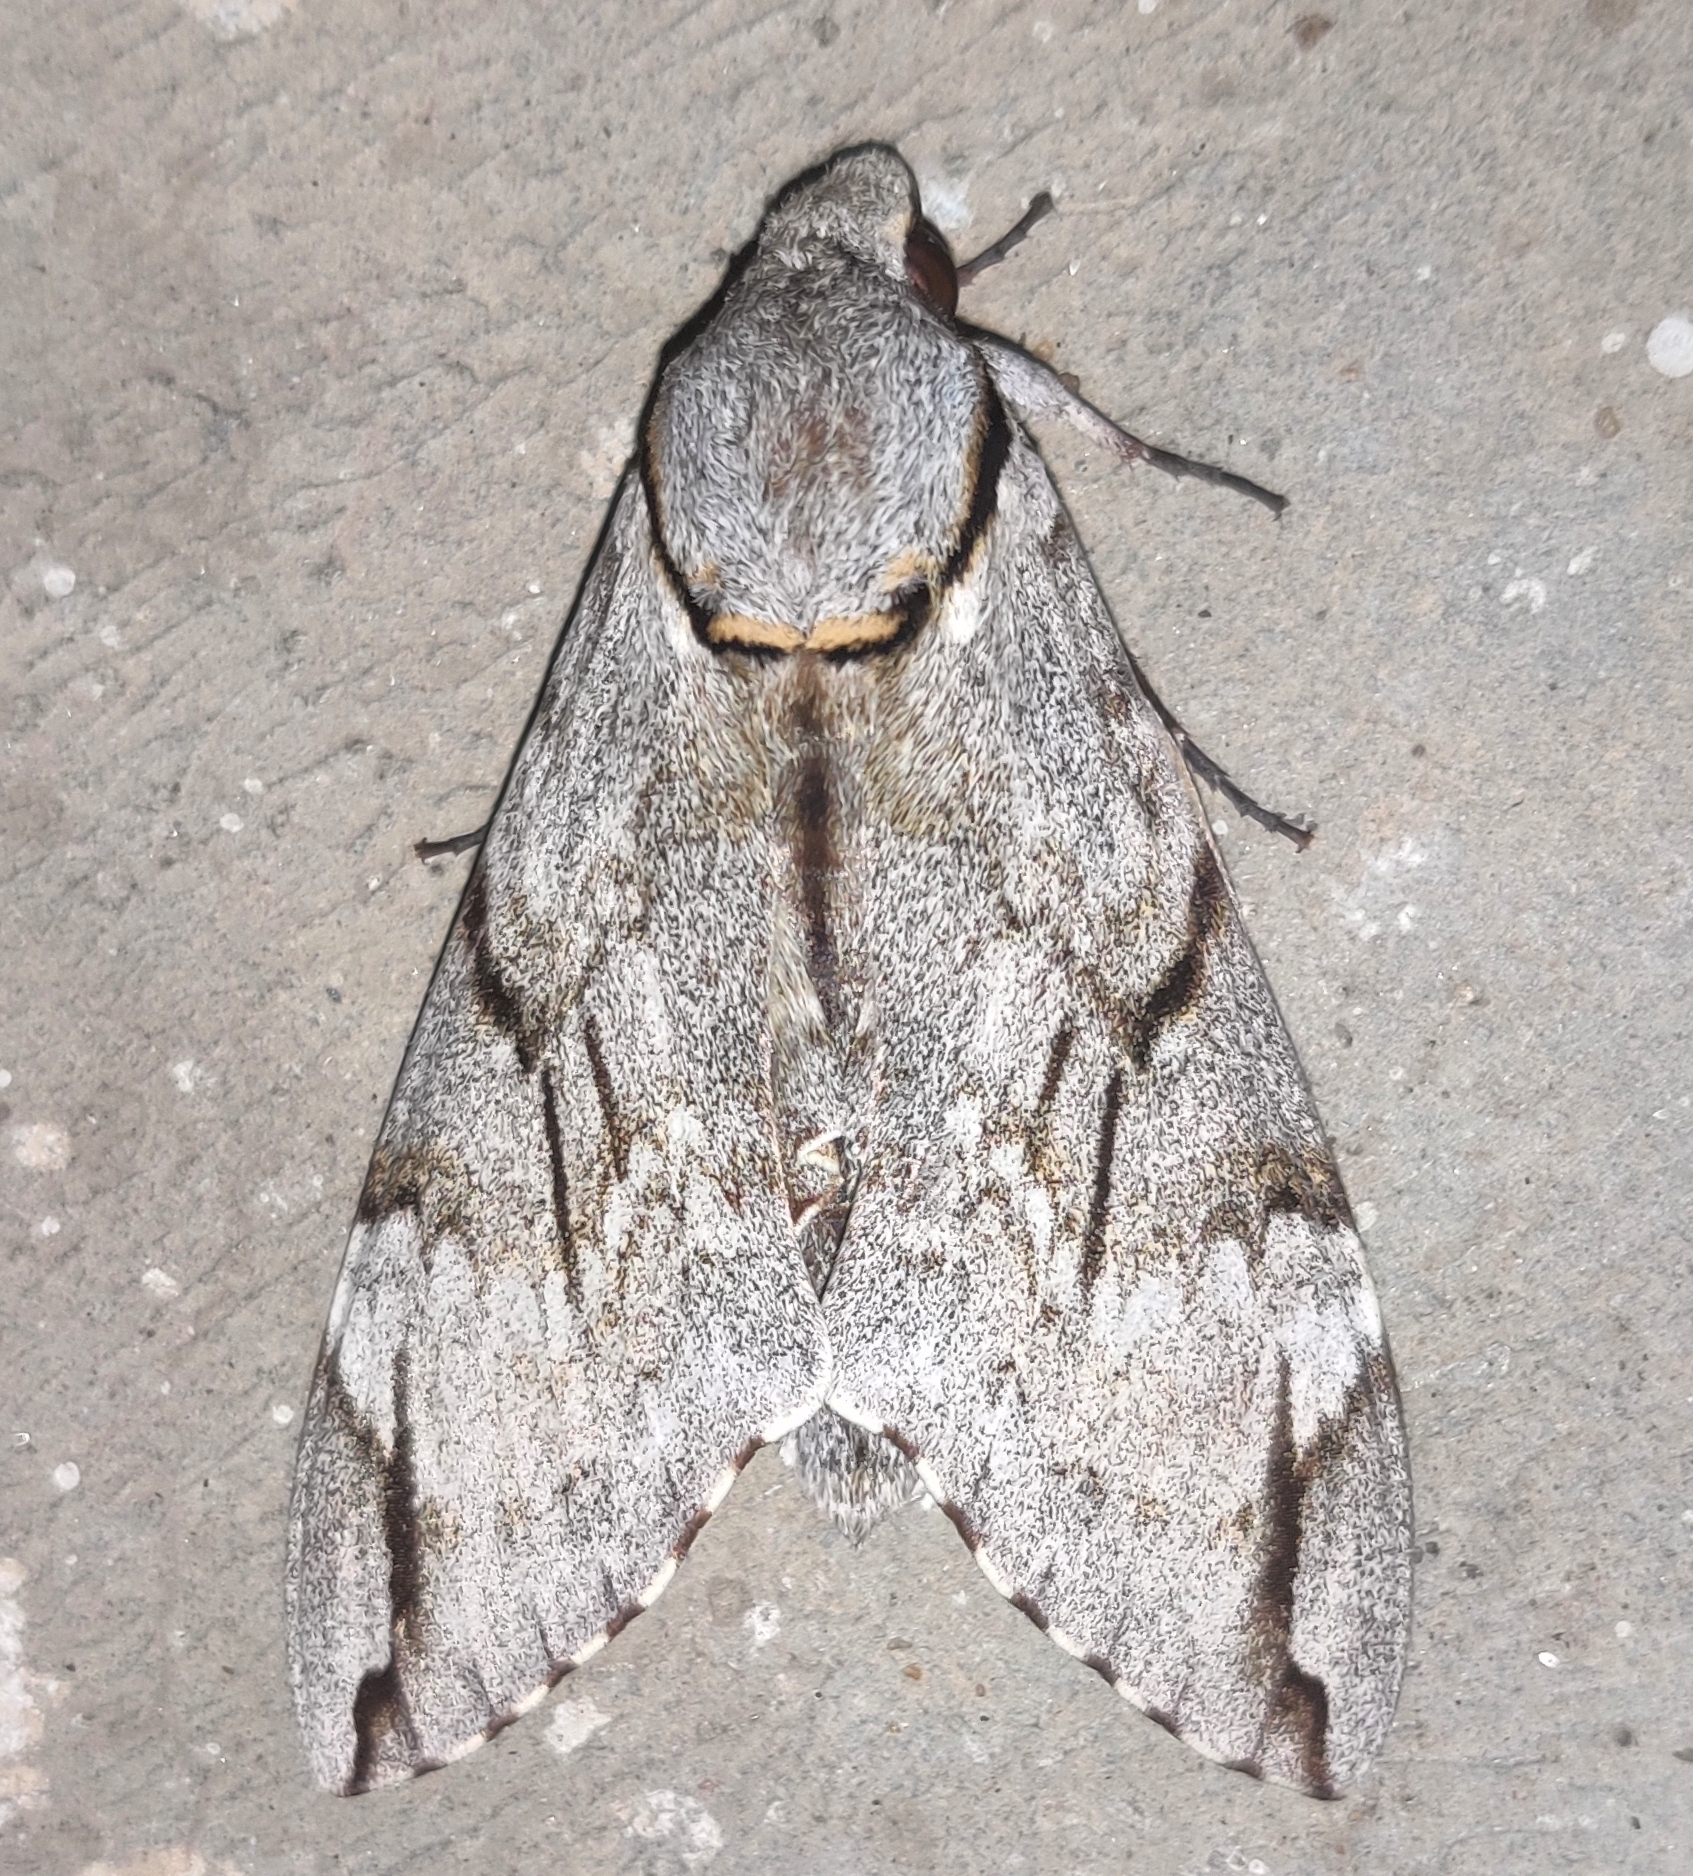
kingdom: Animalia
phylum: Arthropoda
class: Insecta
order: Lepidoptera
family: Sphingidae
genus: Psilogramma
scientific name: Psilogramma increta
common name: Gray hawk moth
